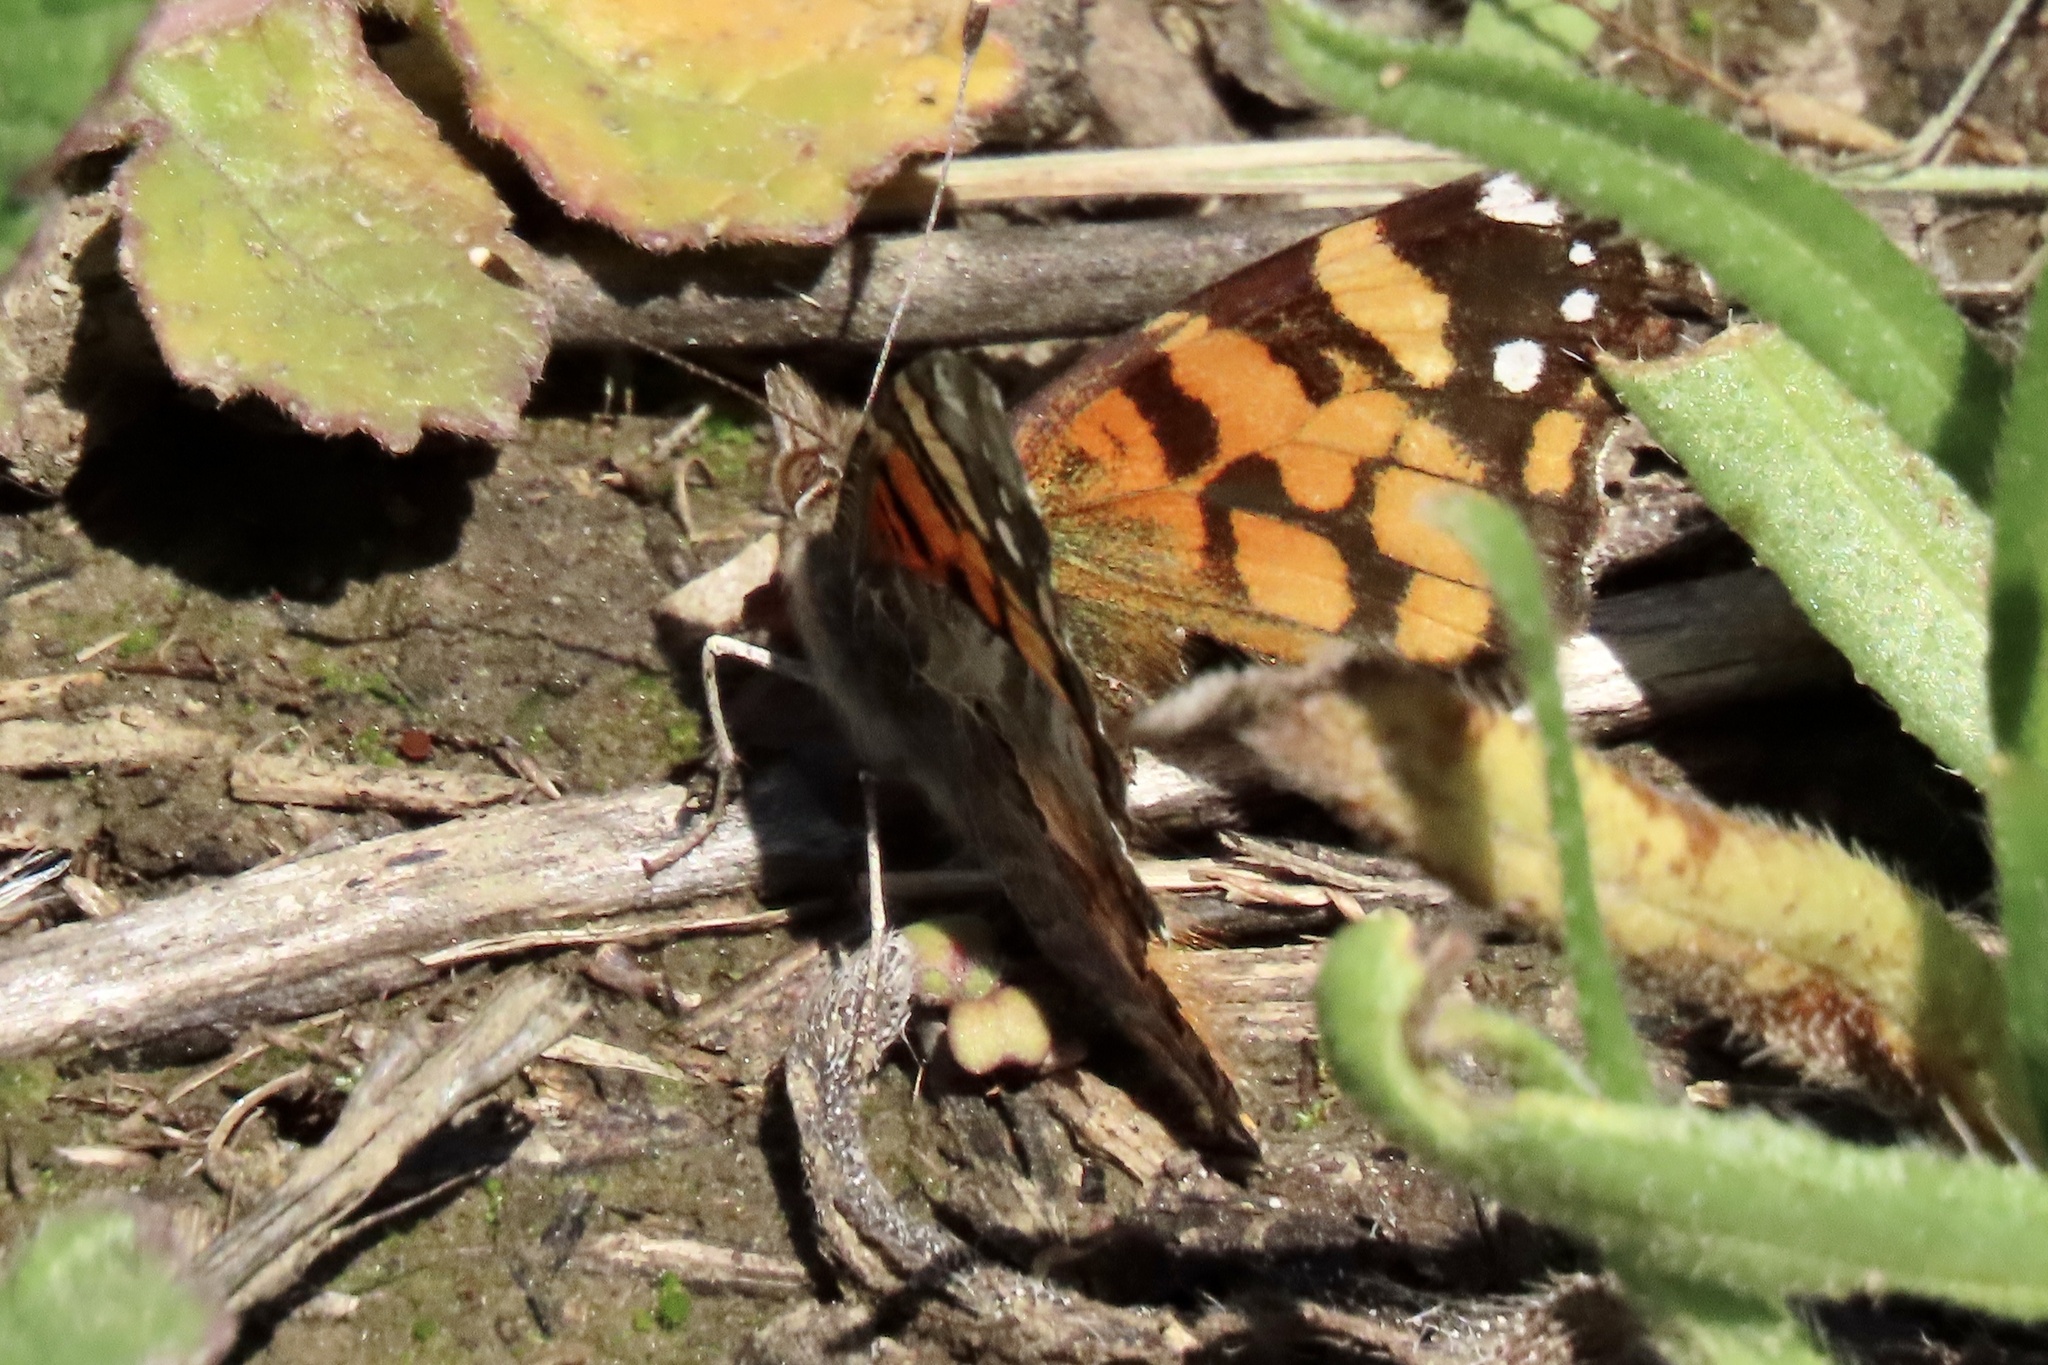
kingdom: Animalia
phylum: Arthropoda
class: Insecta
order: Lepidoptera
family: Nymphalidae
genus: Vanessa
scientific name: Vanessa annabella
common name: West coast lady
